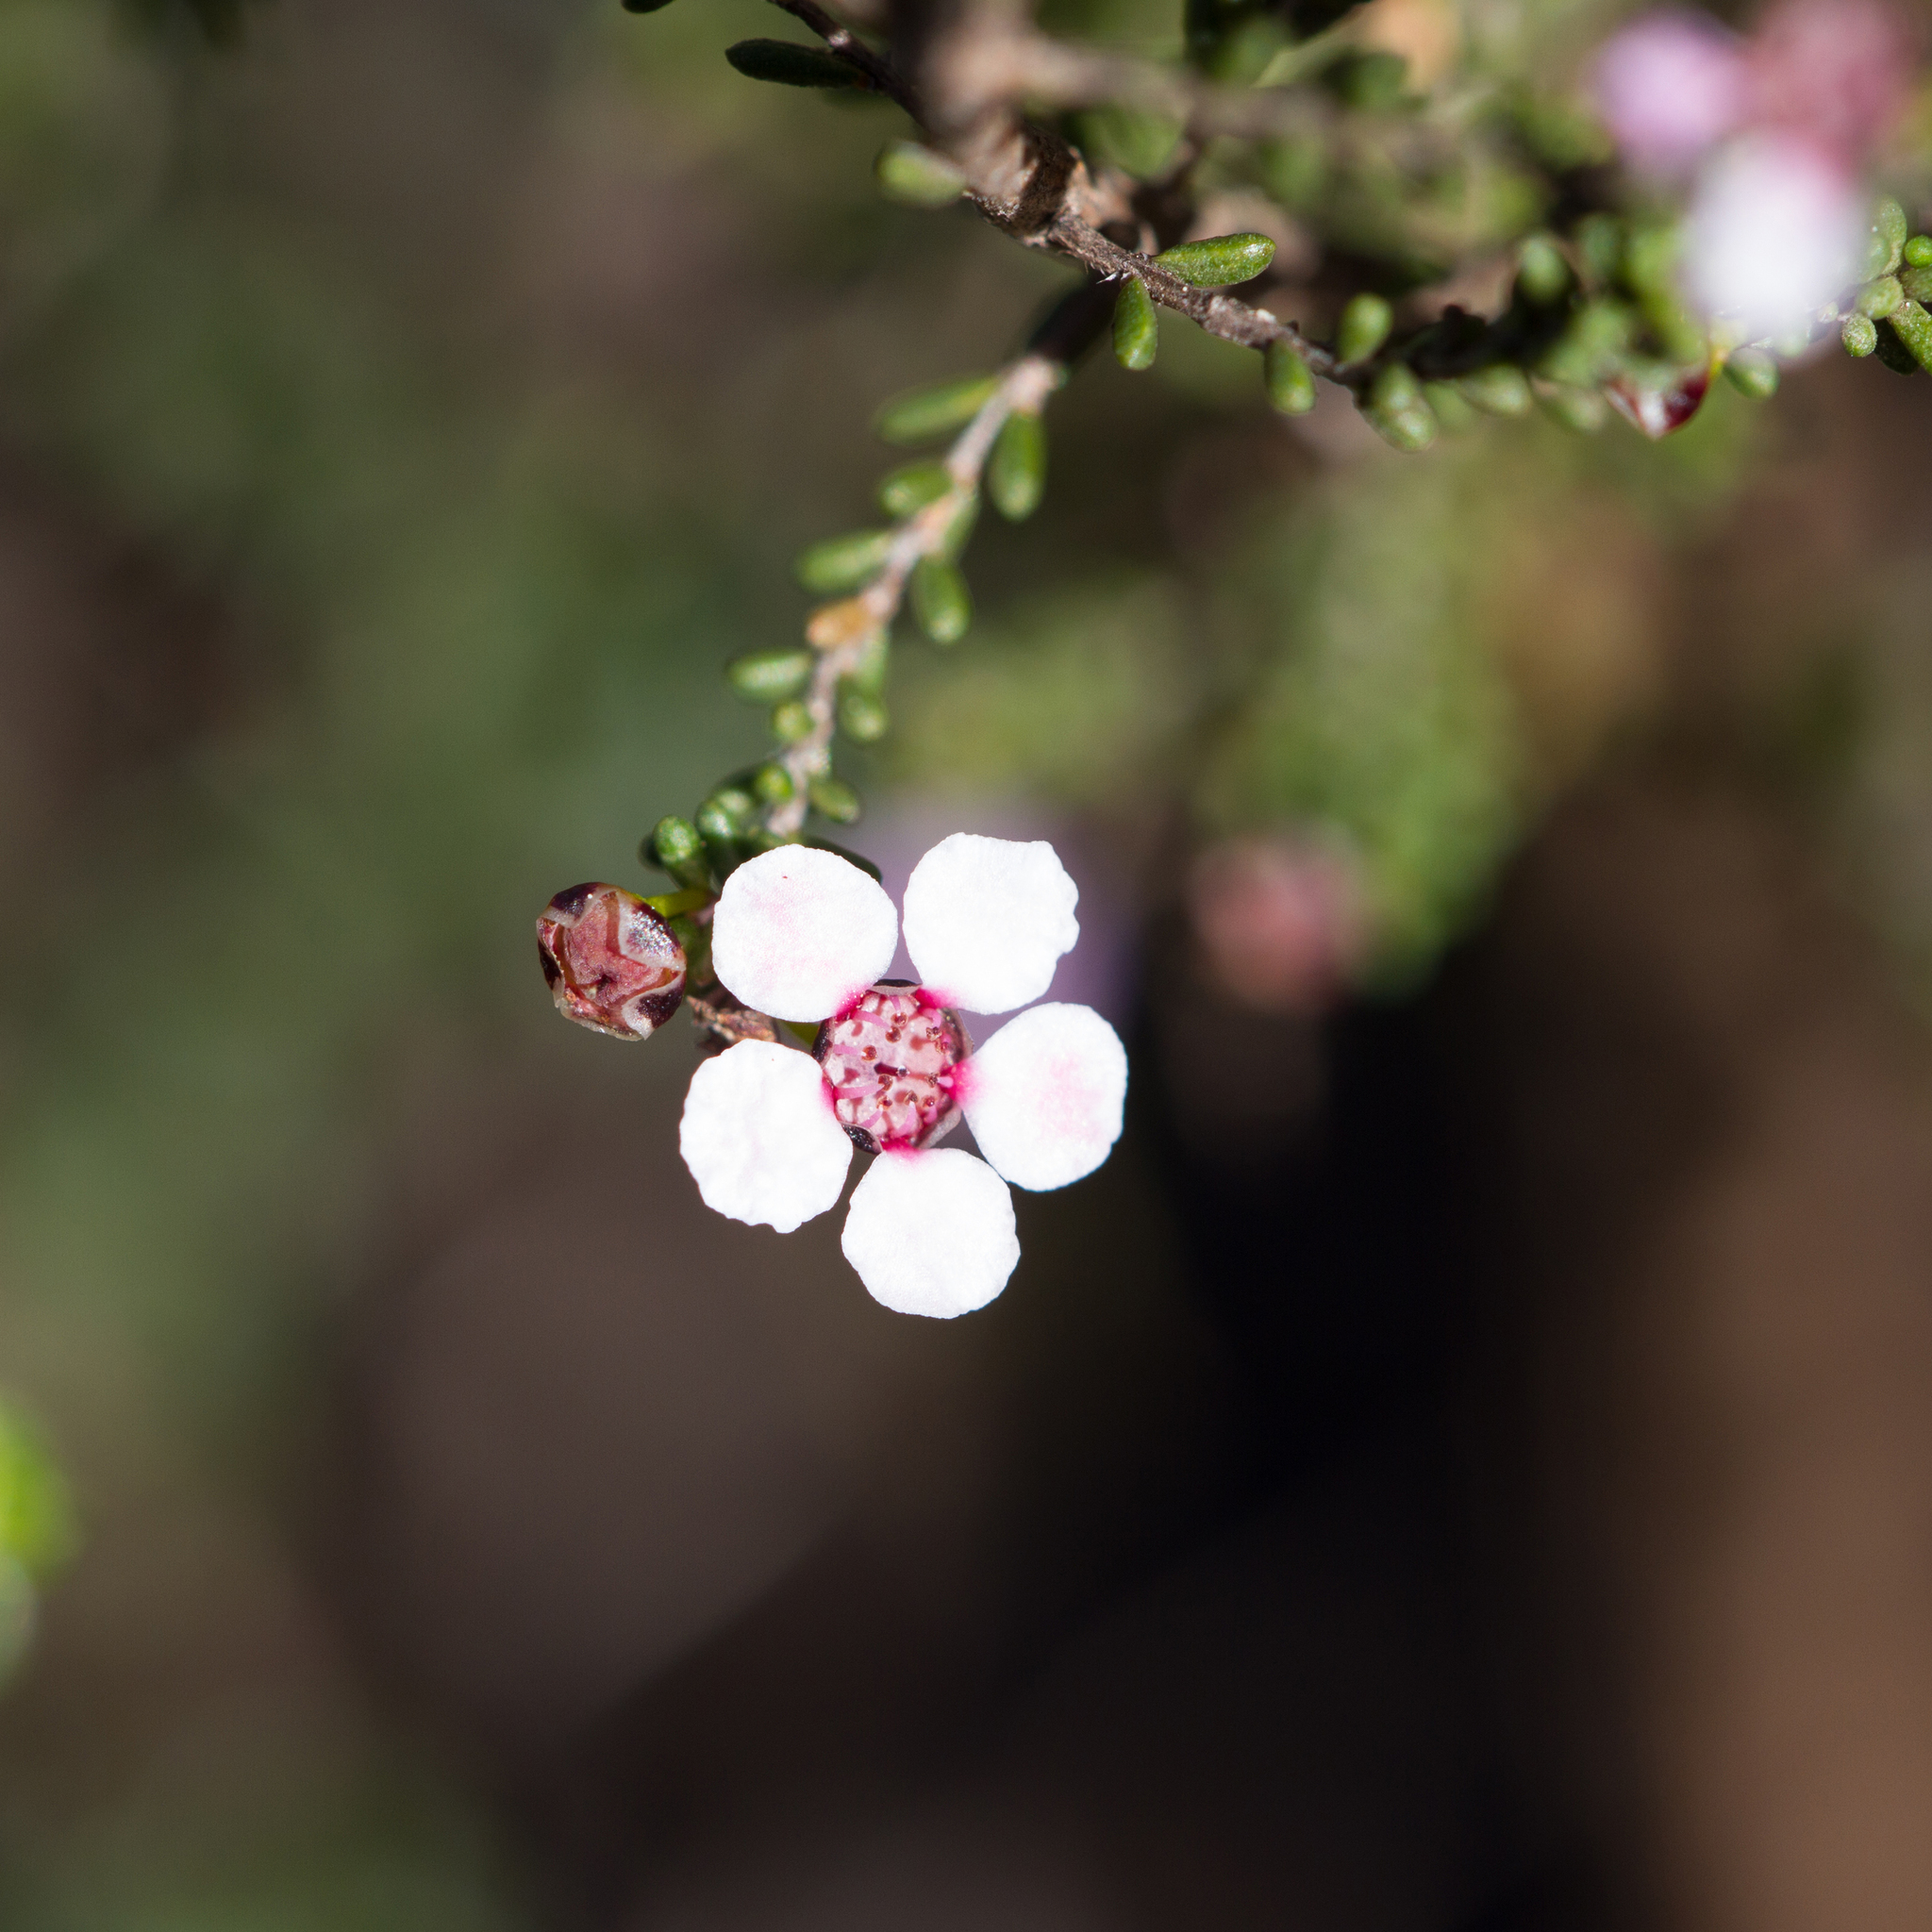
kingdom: Plantae
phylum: Tracheophyta
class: Magnoliopsida
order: Myrtales
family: Myrtaceae
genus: Rinzia
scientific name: Rinzia orientalis
